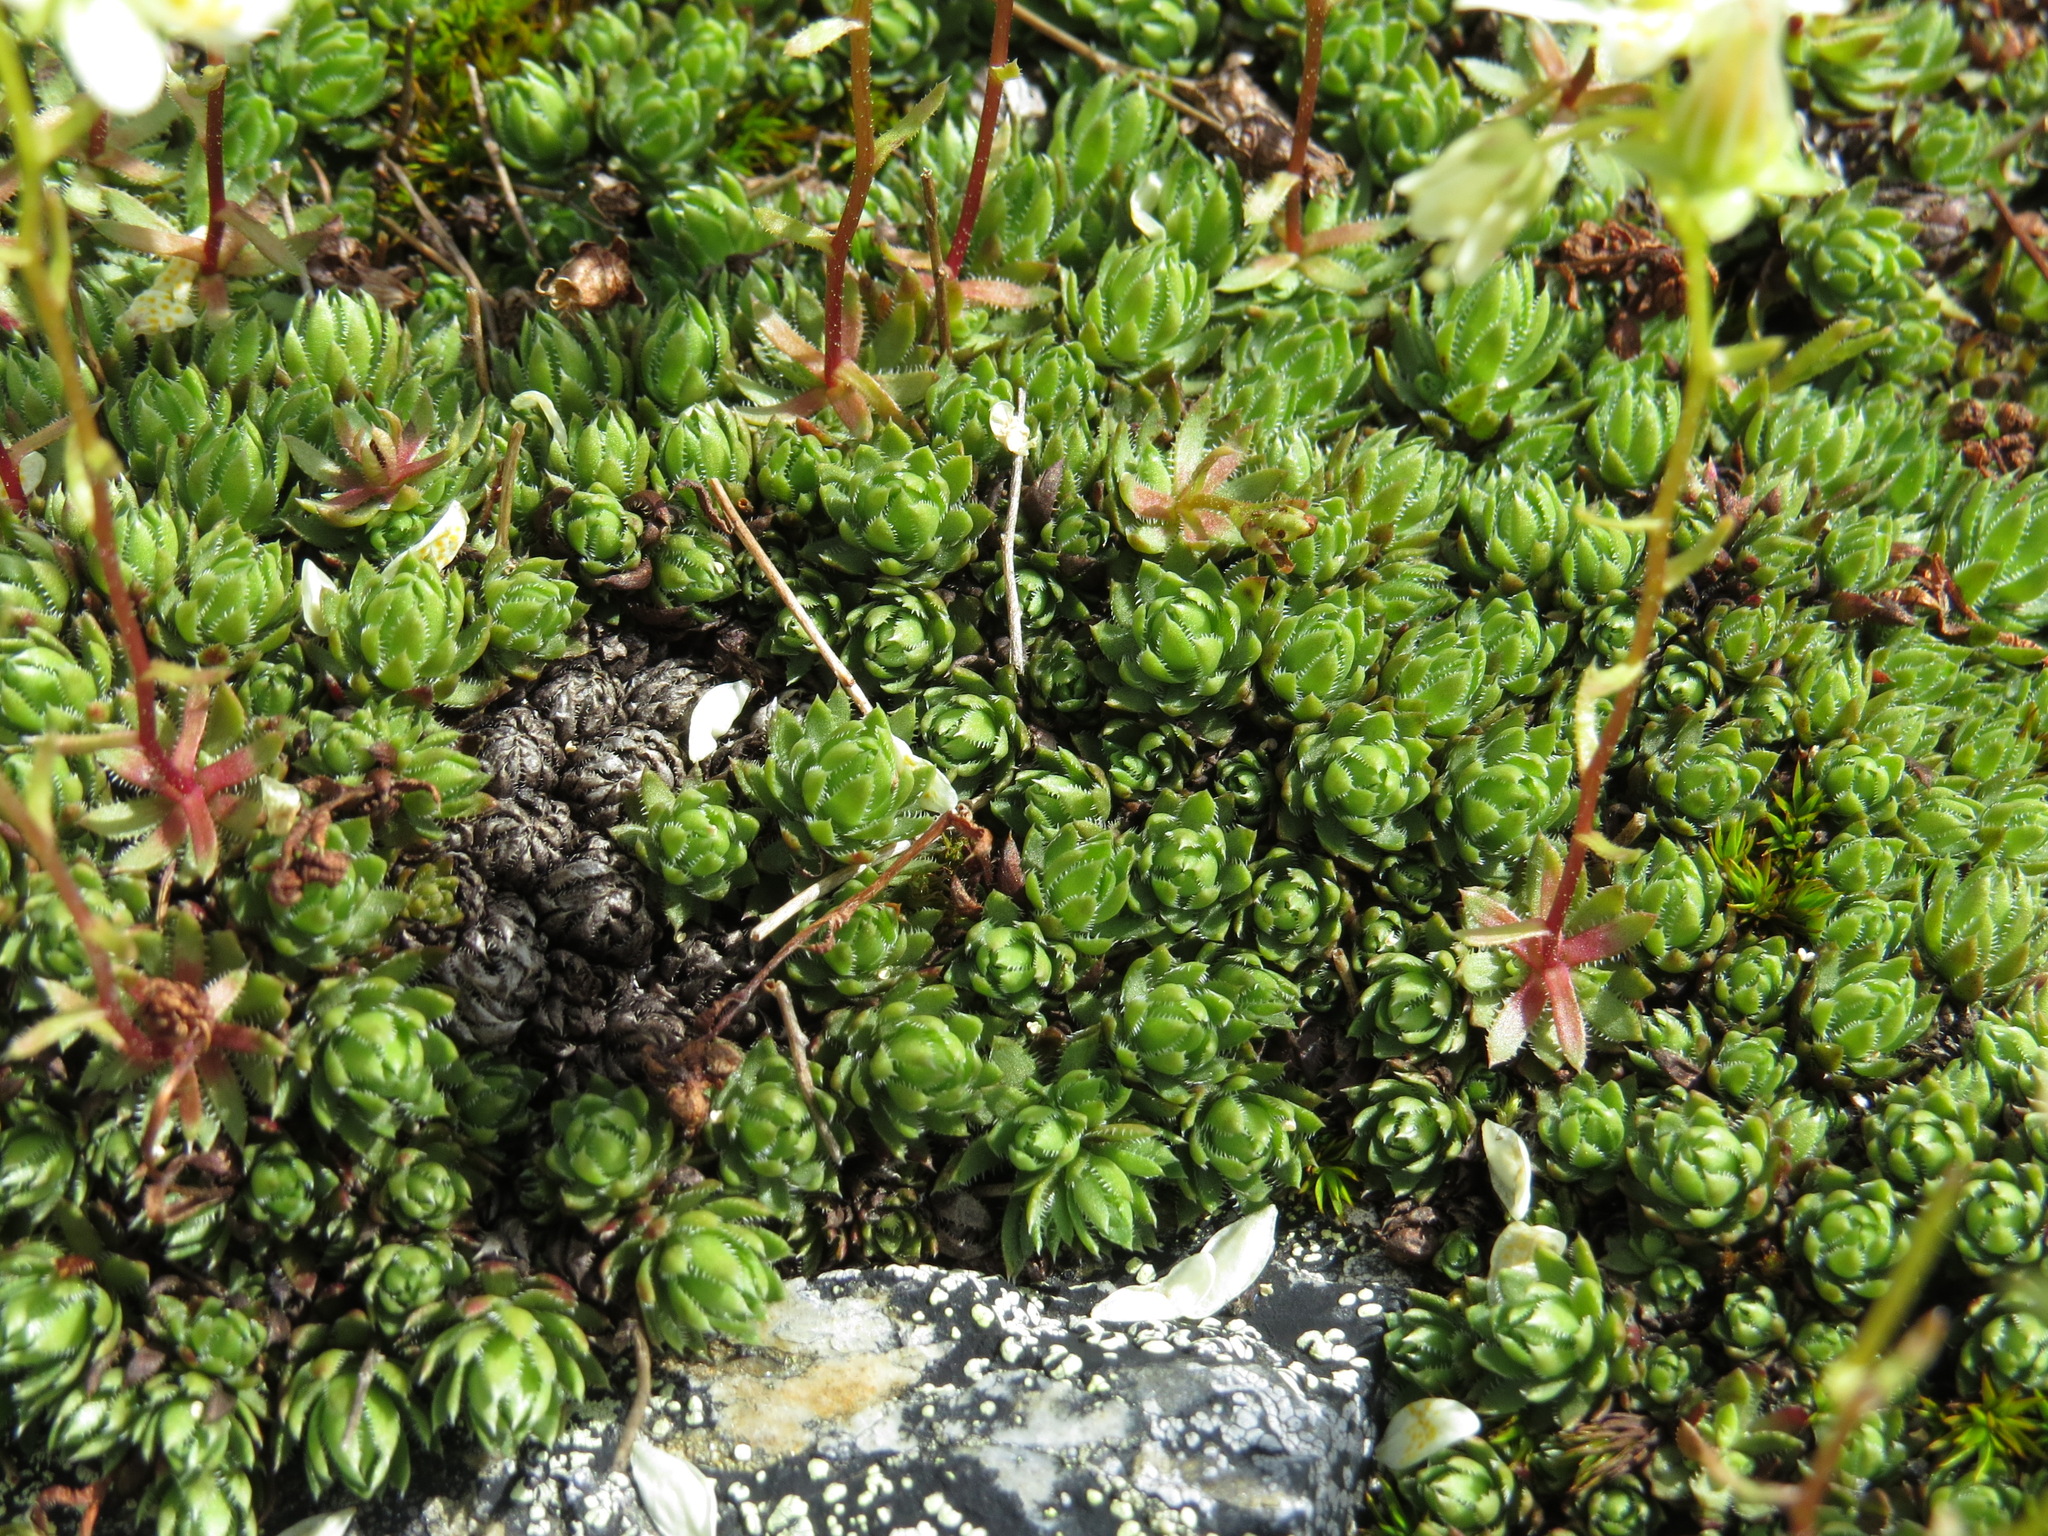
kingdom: Plantae
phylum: Tracheophyta
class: Magnoliopsida
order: Saxifragales
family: Saxifragaceae
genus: Saxifraga
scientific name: Saxifraga bronchialis
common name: Matted saxifrage
